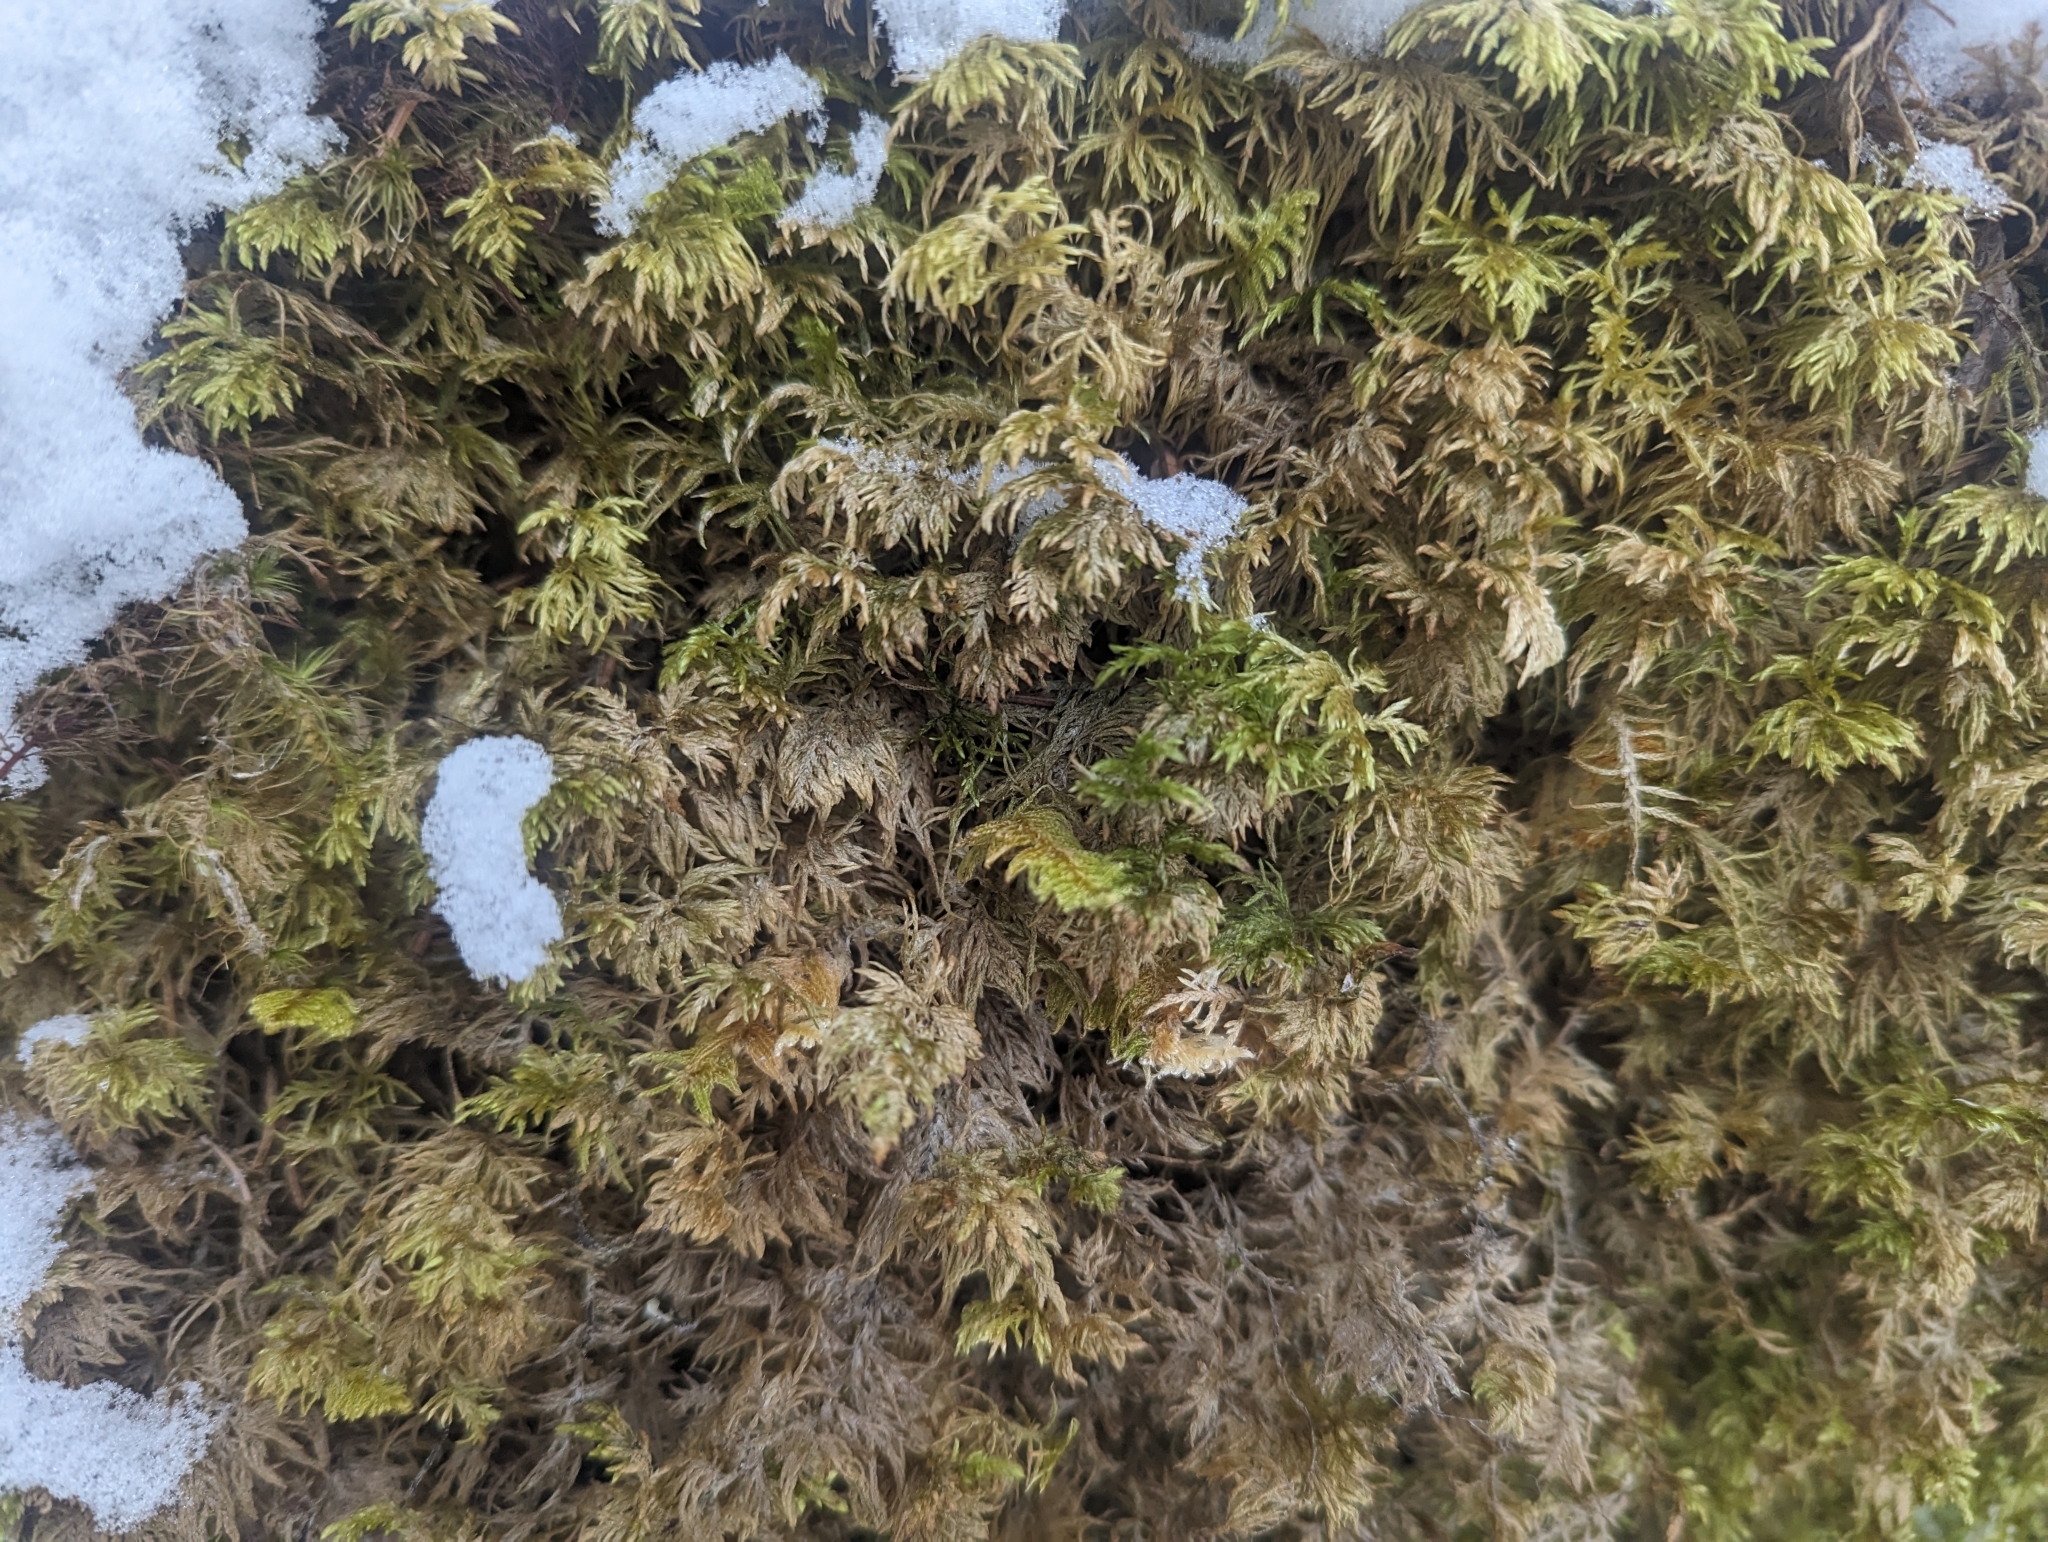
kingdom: Plantae
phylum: Bryophyta
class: Bryopsida
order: Hypnales
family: Hylocomiaceae
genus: Hylocomium
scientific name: Hylocomium splendens
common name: Stairstep moss
